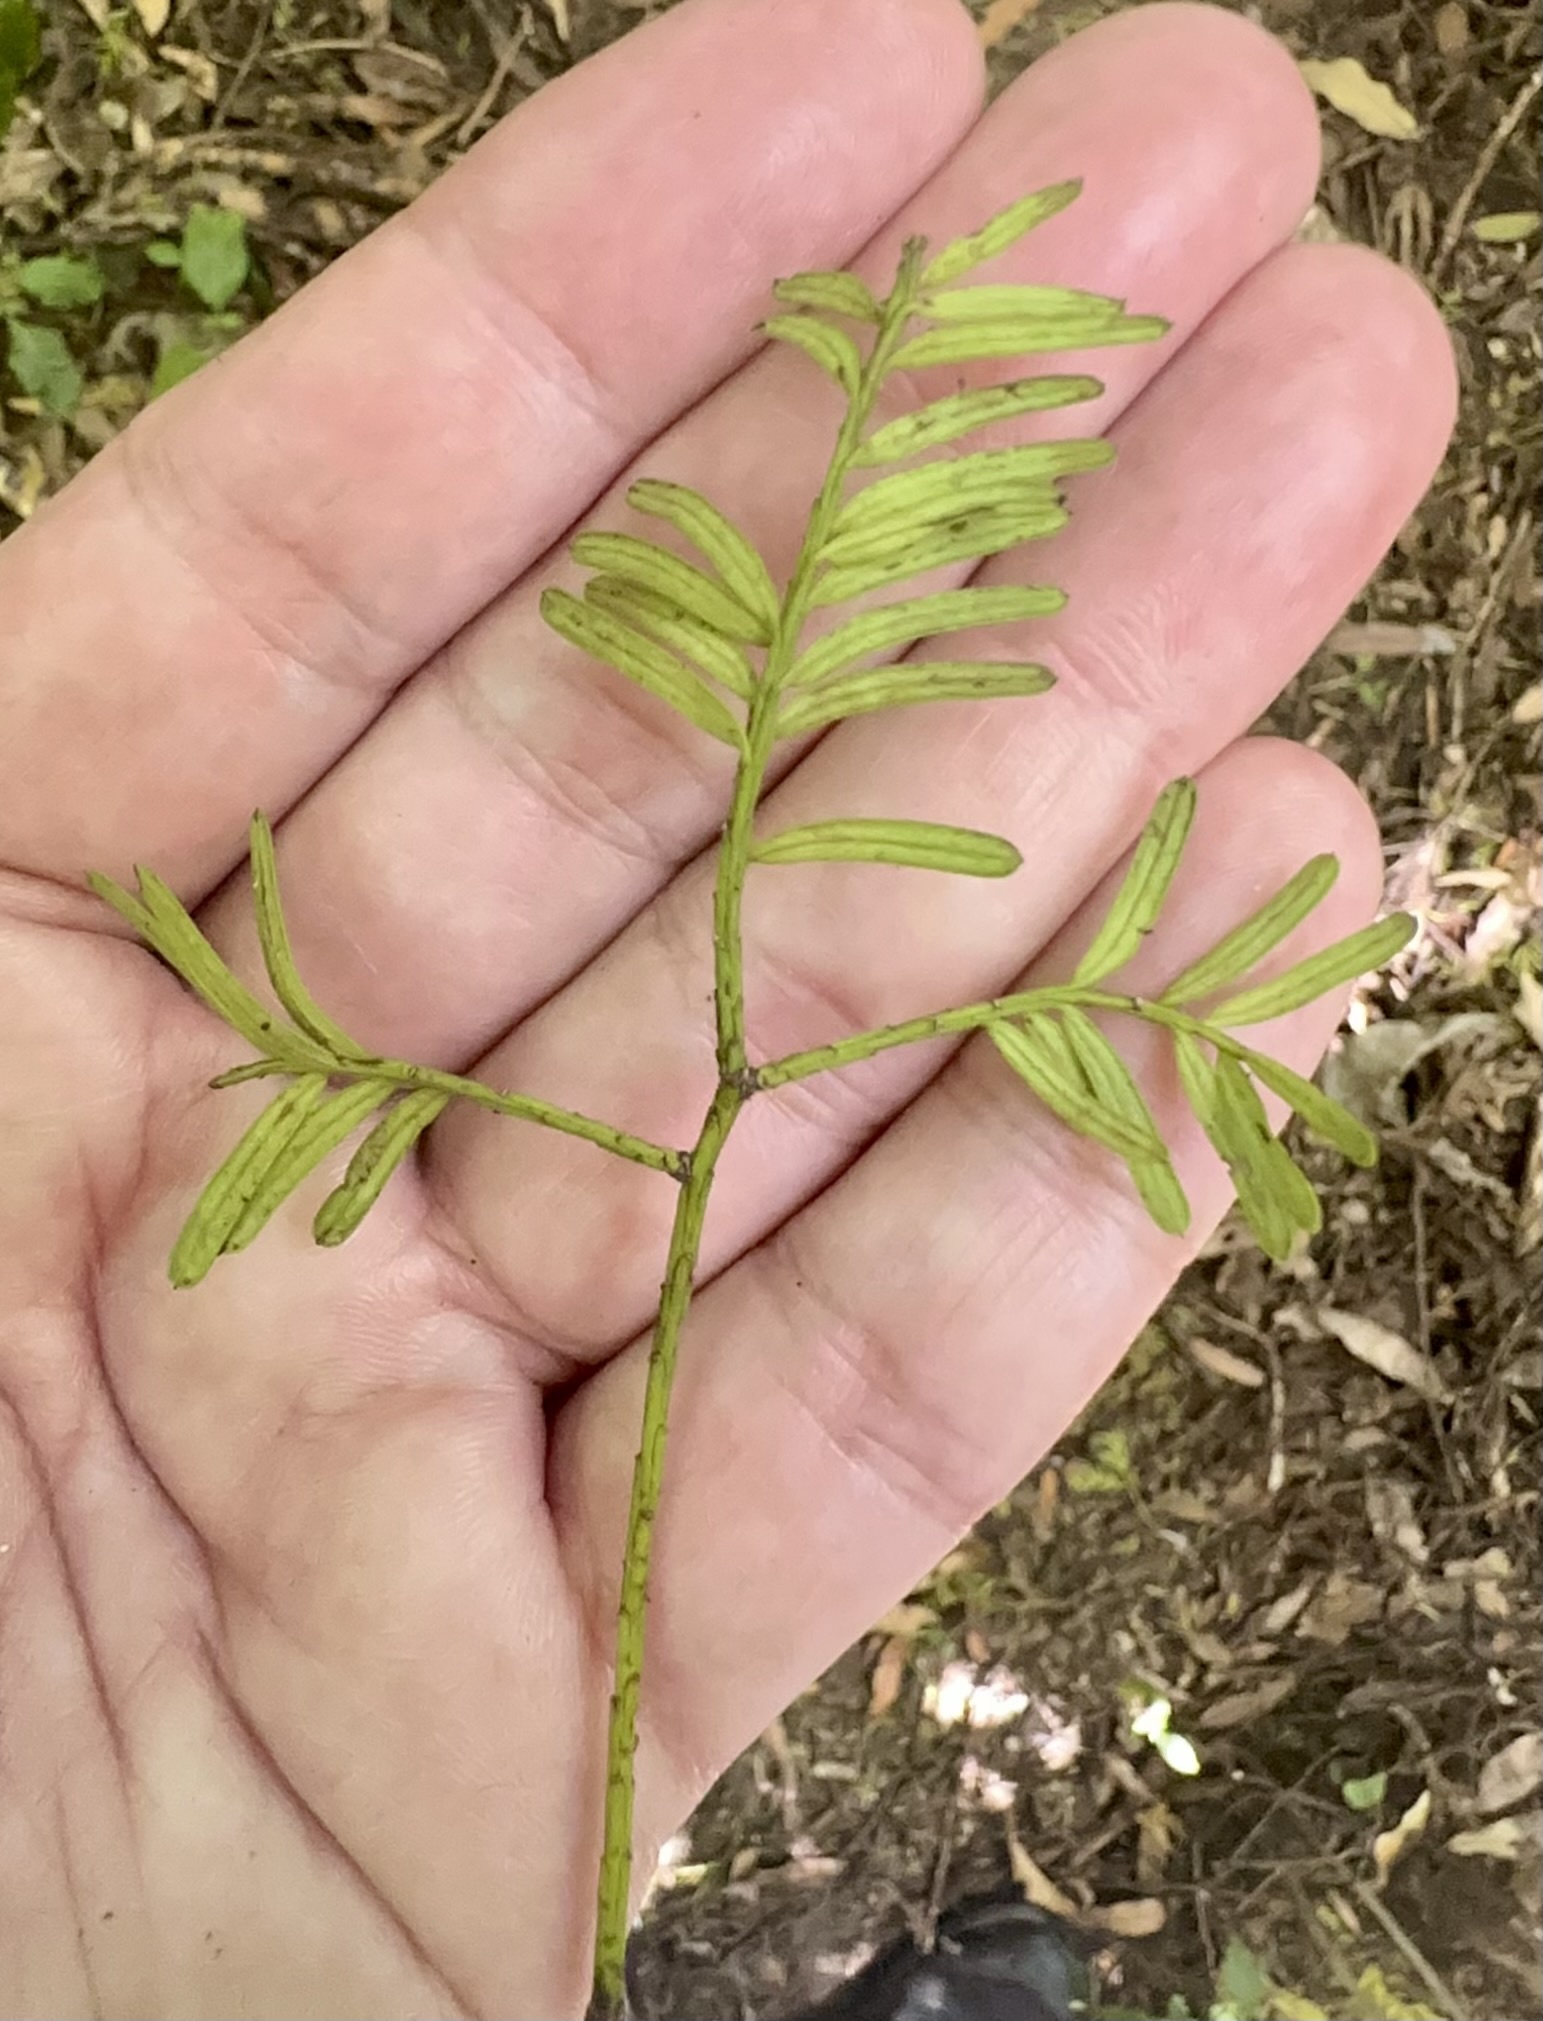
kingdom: Plantae
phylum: Tracheophyta
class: Pinopsida
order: Pinales
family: Podocarpaceae
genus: Prumnopitys
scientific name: Prumnopitys taxifolia
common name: Matai
